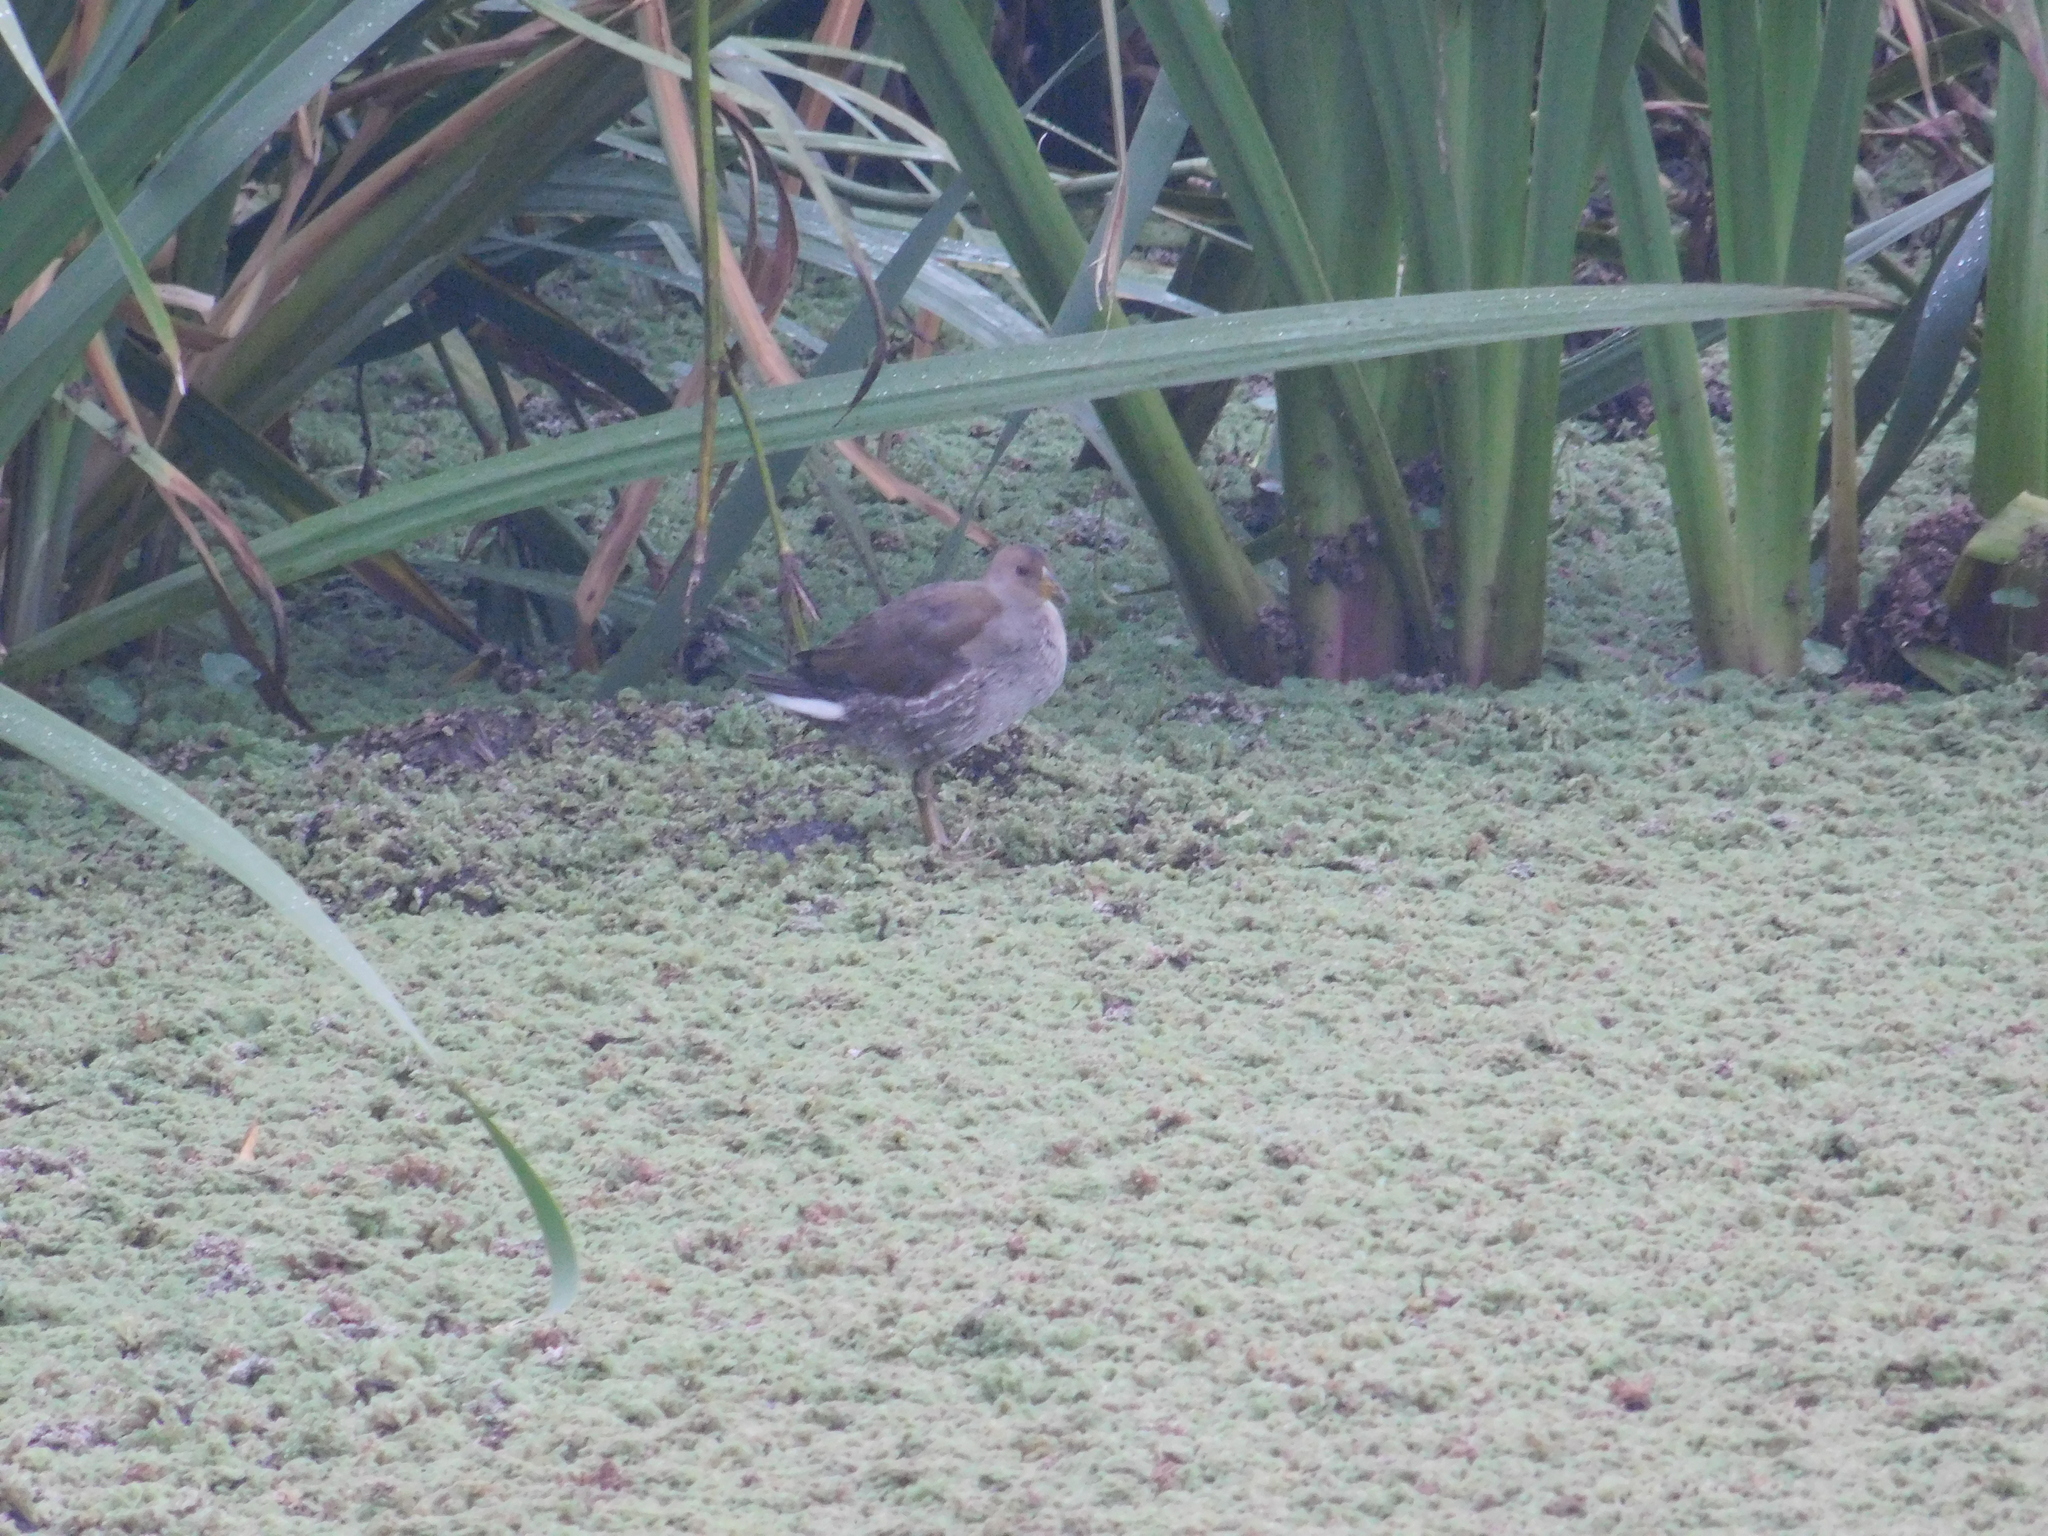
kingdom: Animalia
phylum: Chordata
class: Aves
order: Gruiformes
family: Rallidae
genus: Gallinula
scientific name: Gallinula melanops
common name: Spot-flanked gallinule
